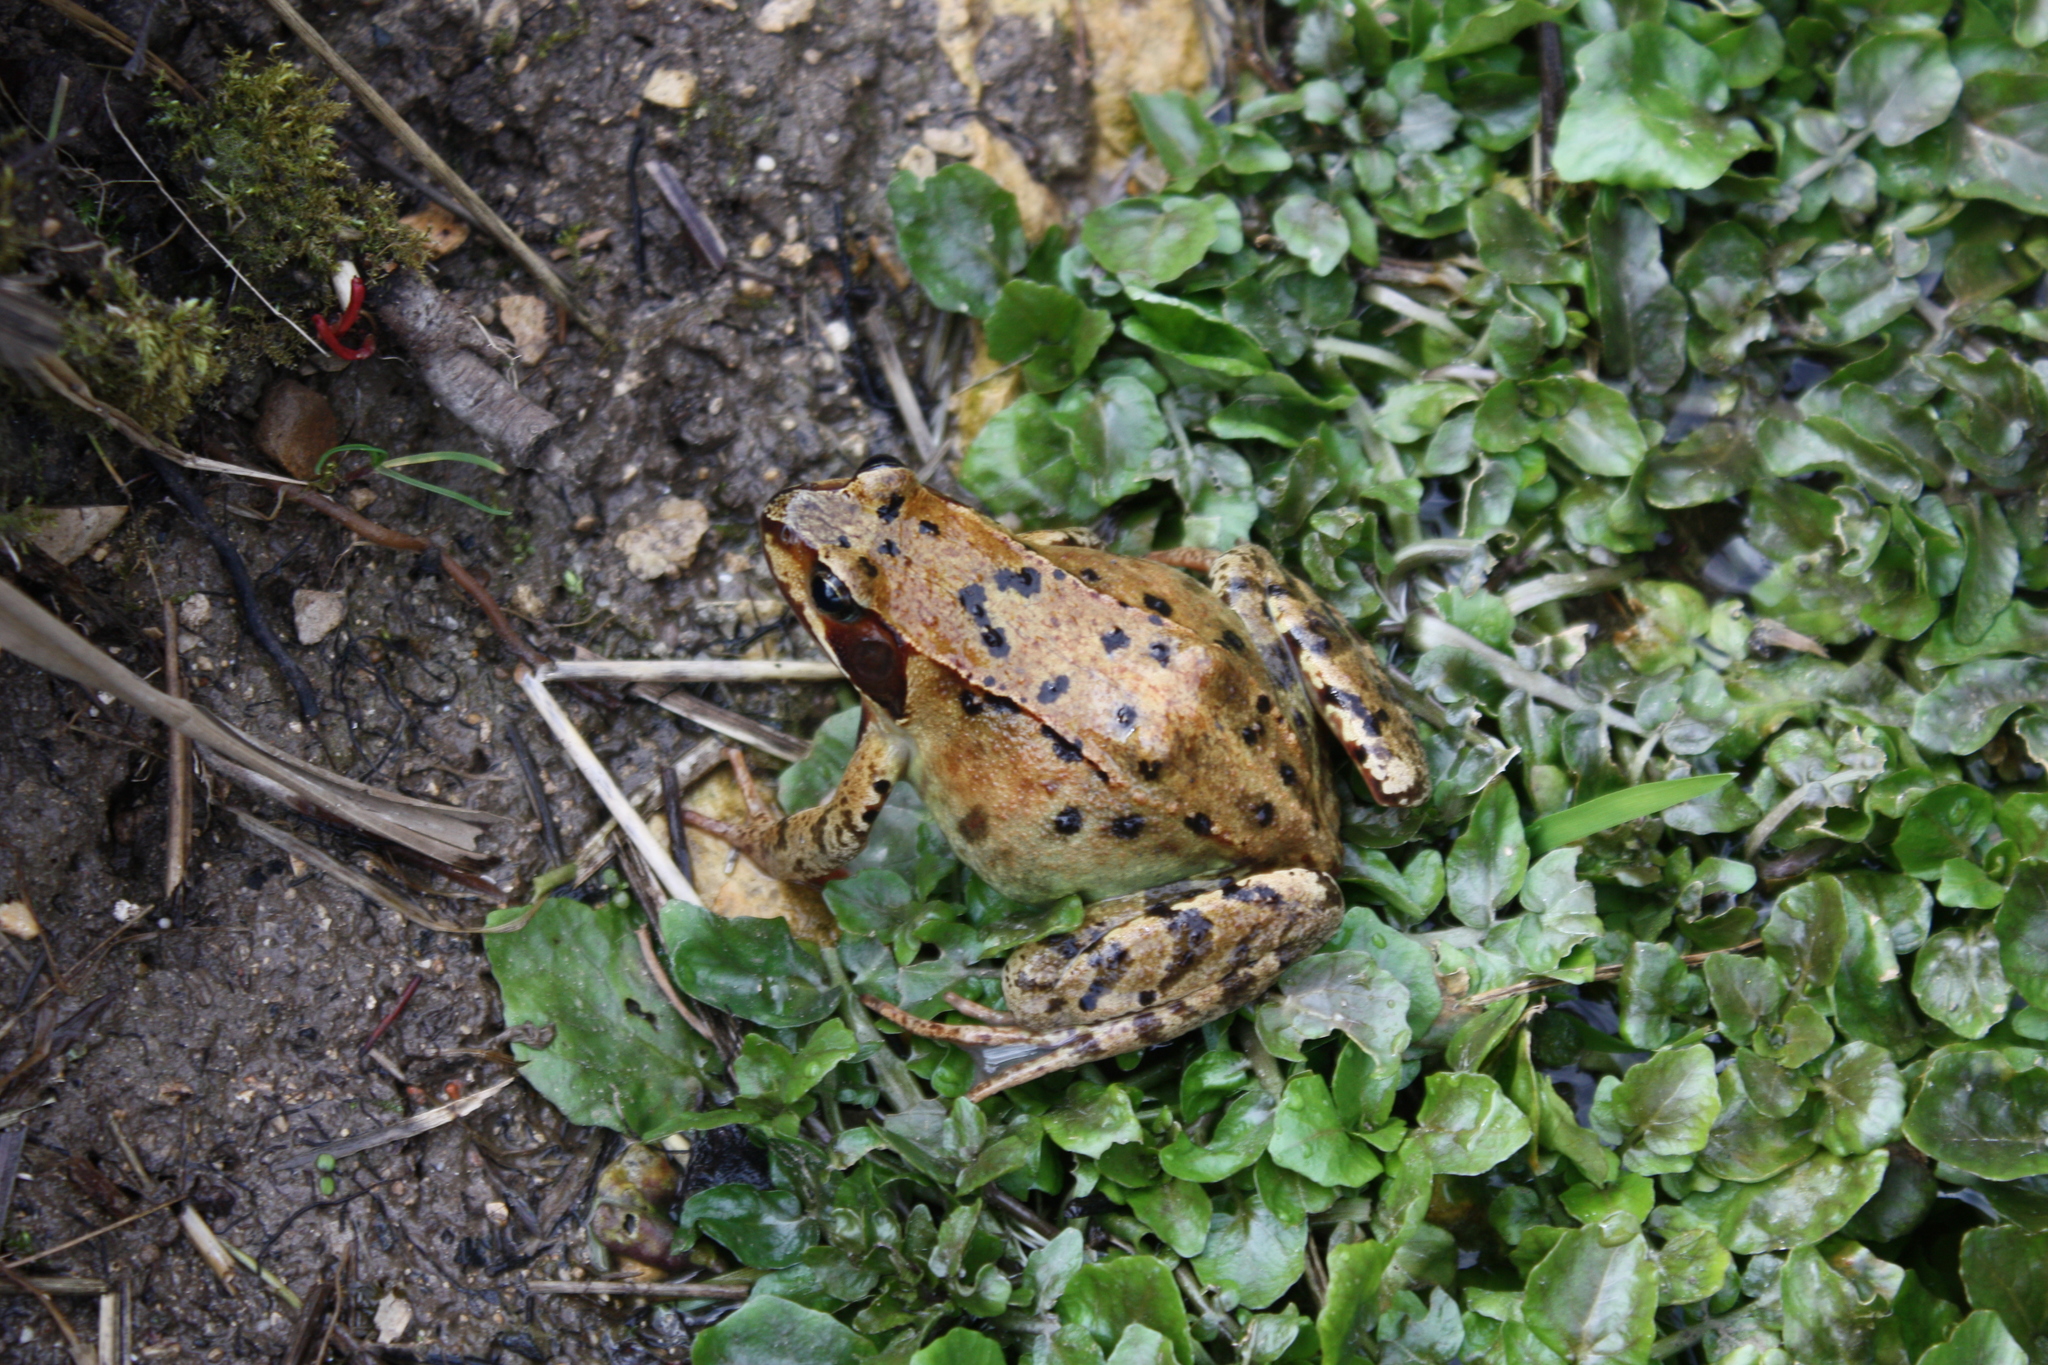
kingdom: Animalia
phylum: Chordata
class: Amphibia
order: Anura
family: Ranidae
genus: Rana
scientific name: Rana temporaria
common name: Common frog
